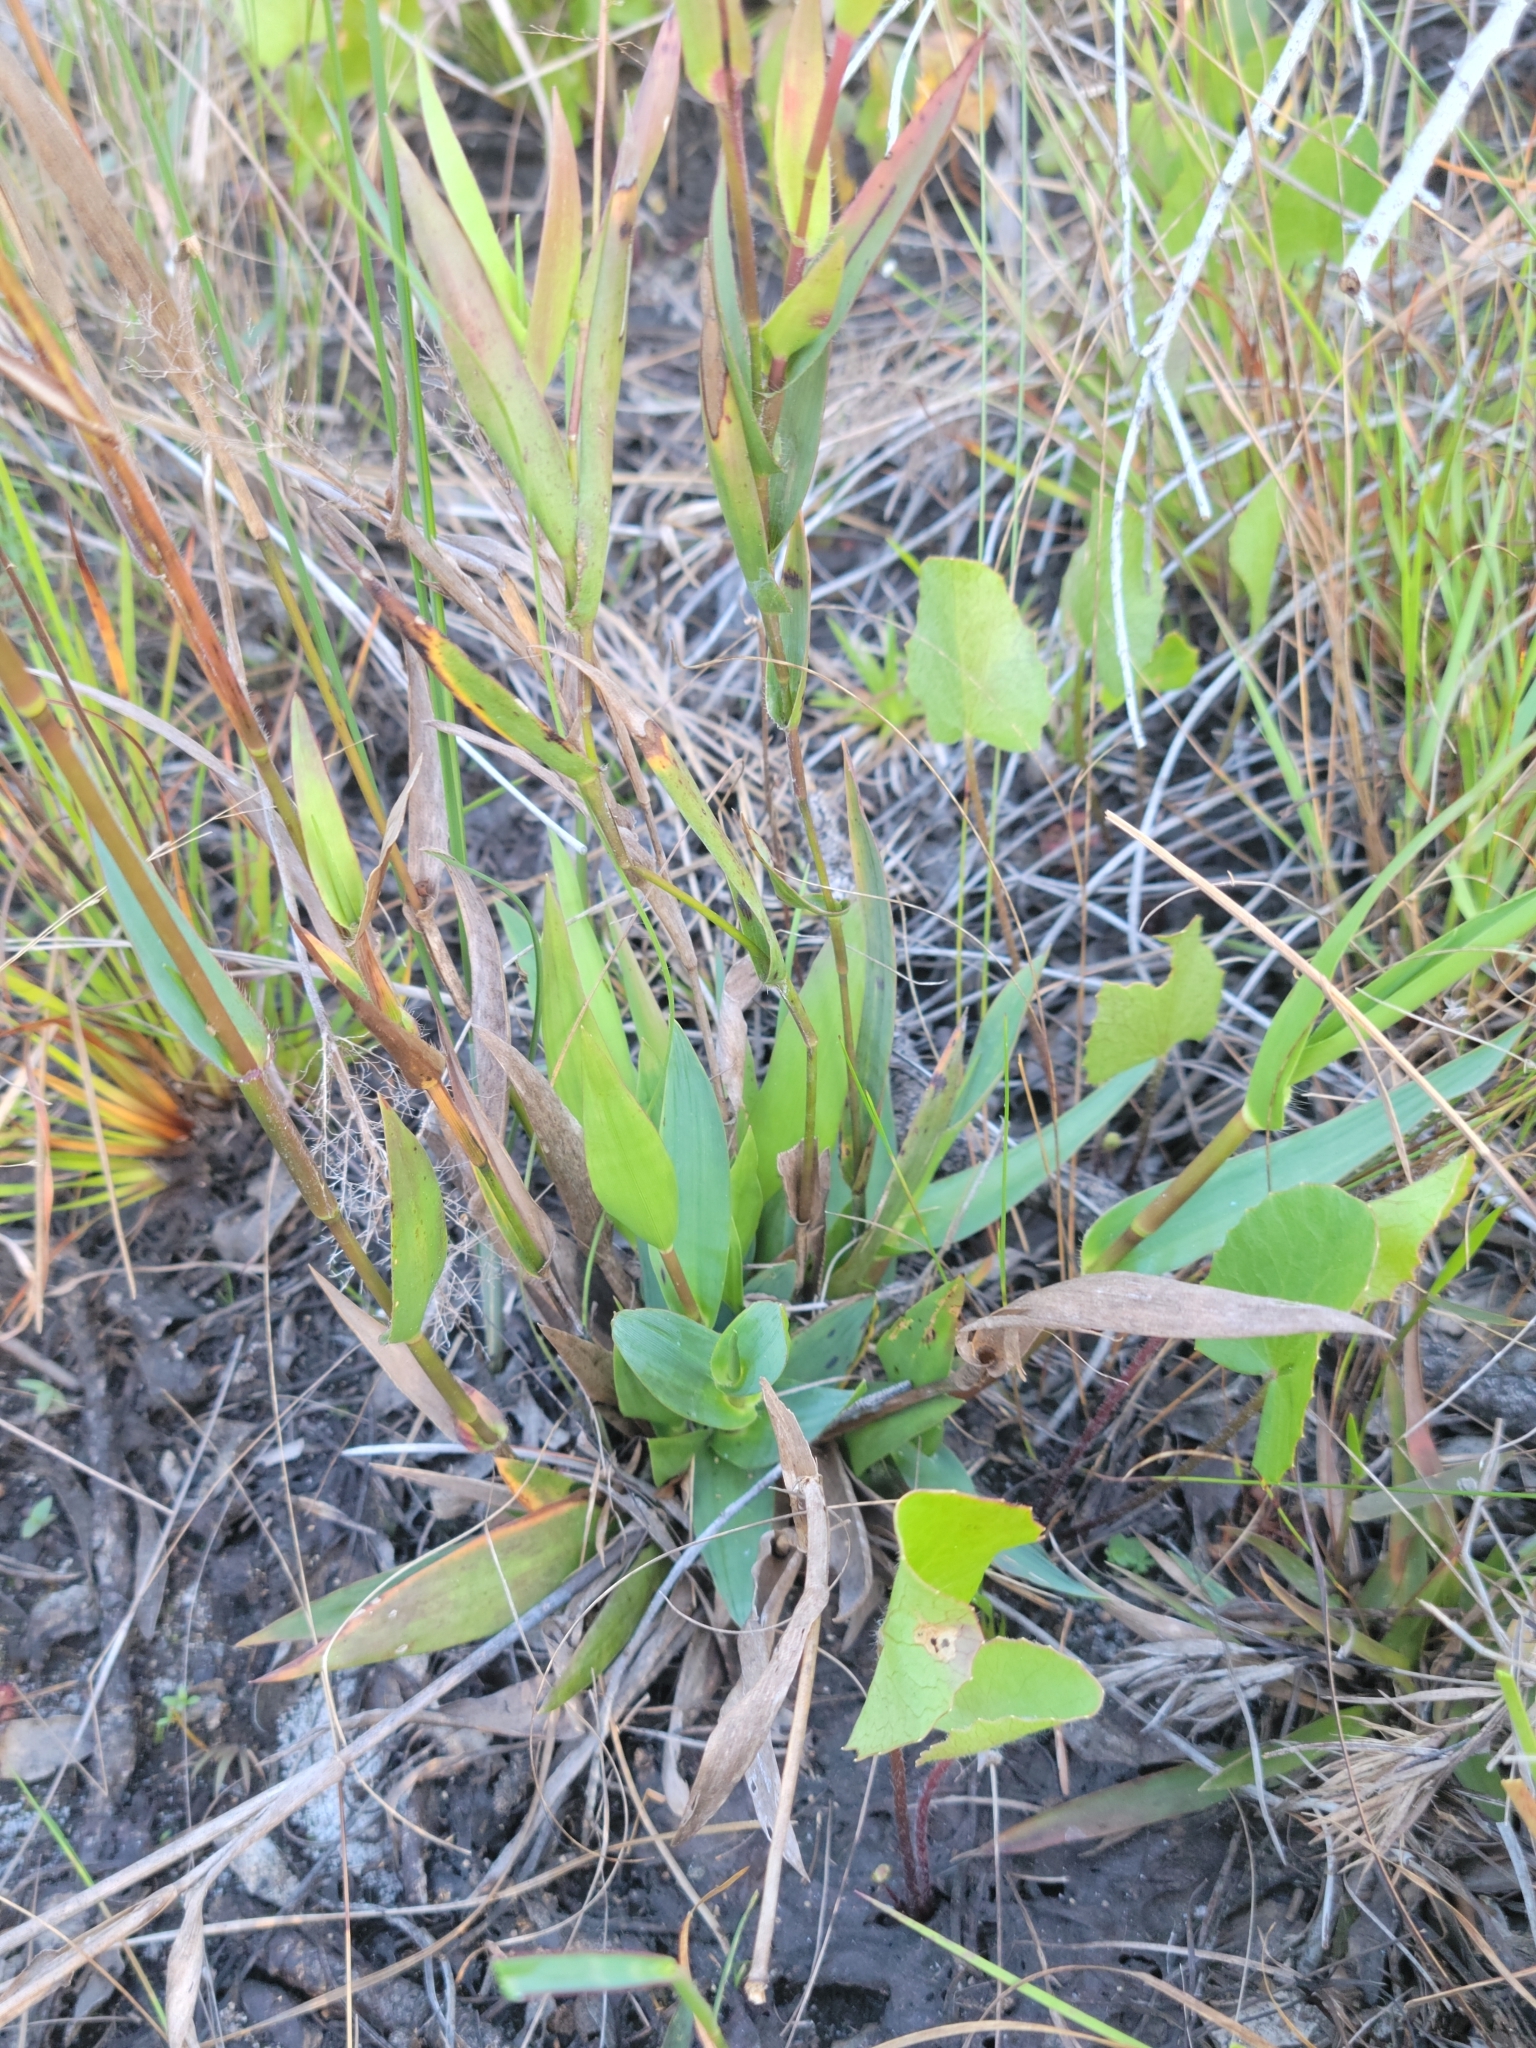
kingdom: Plantae
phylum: Tracheophyta
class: Liliopsida
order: Poales
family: Poaceae
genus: Dichanthelium
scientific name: Dichanthelium erectifolium
